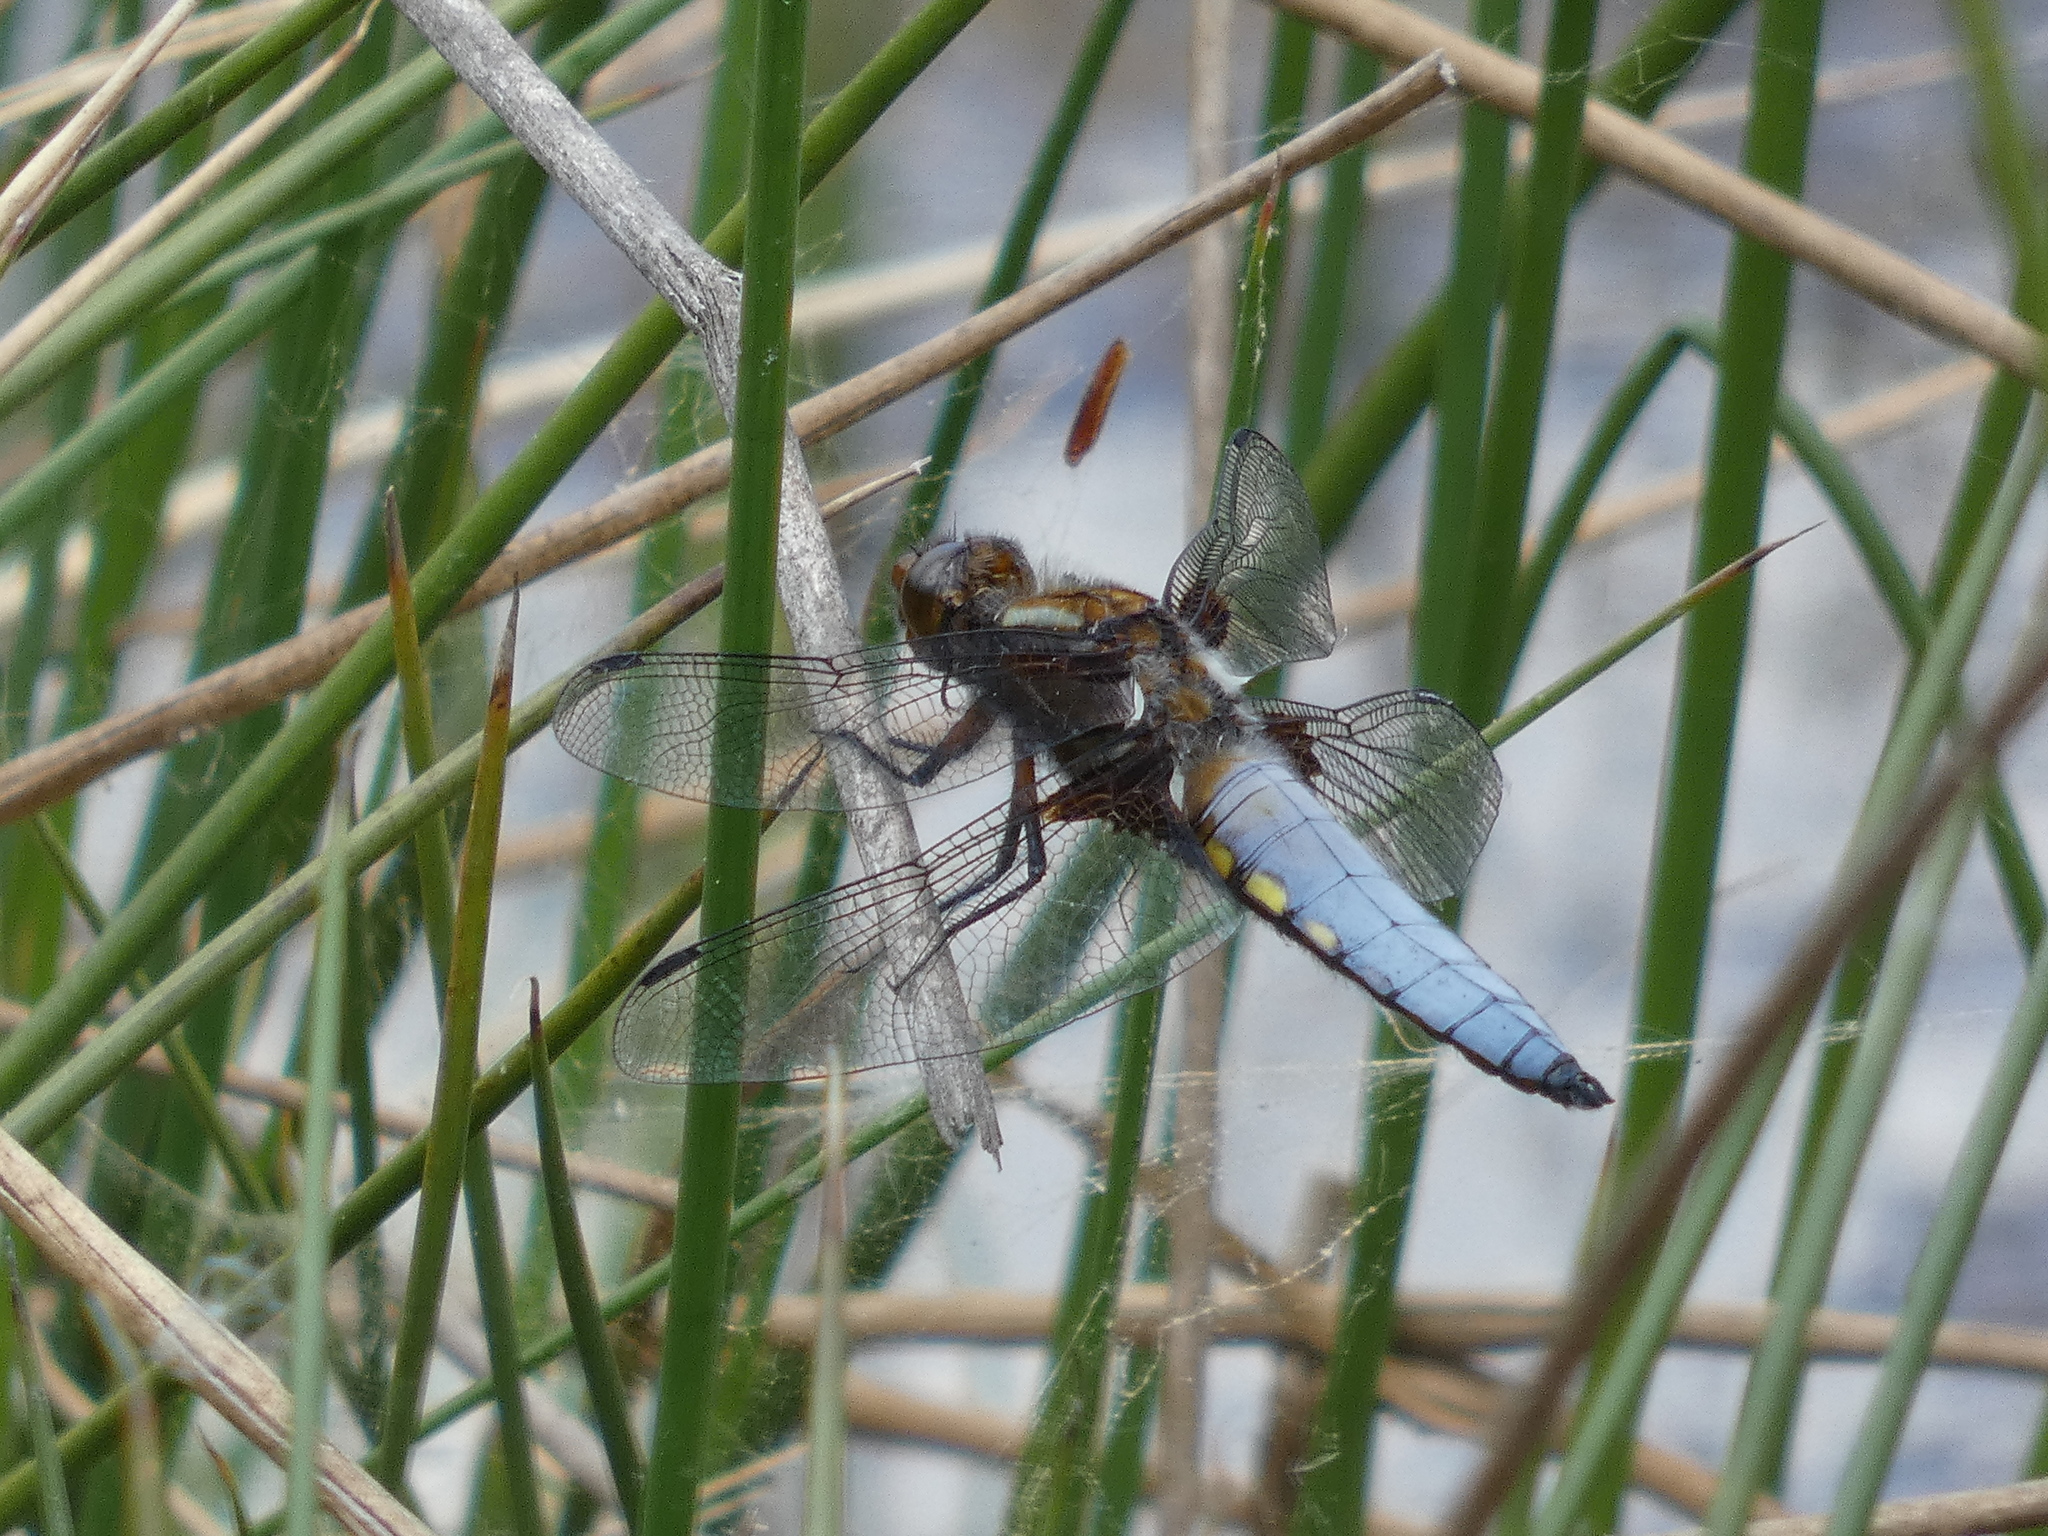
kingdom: Animalia
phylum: Arthropoda
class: Insecta
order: Odonata
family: Libellulidae
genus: Libellula
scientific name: Libellula depressa
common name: Broad-bodied chaser
